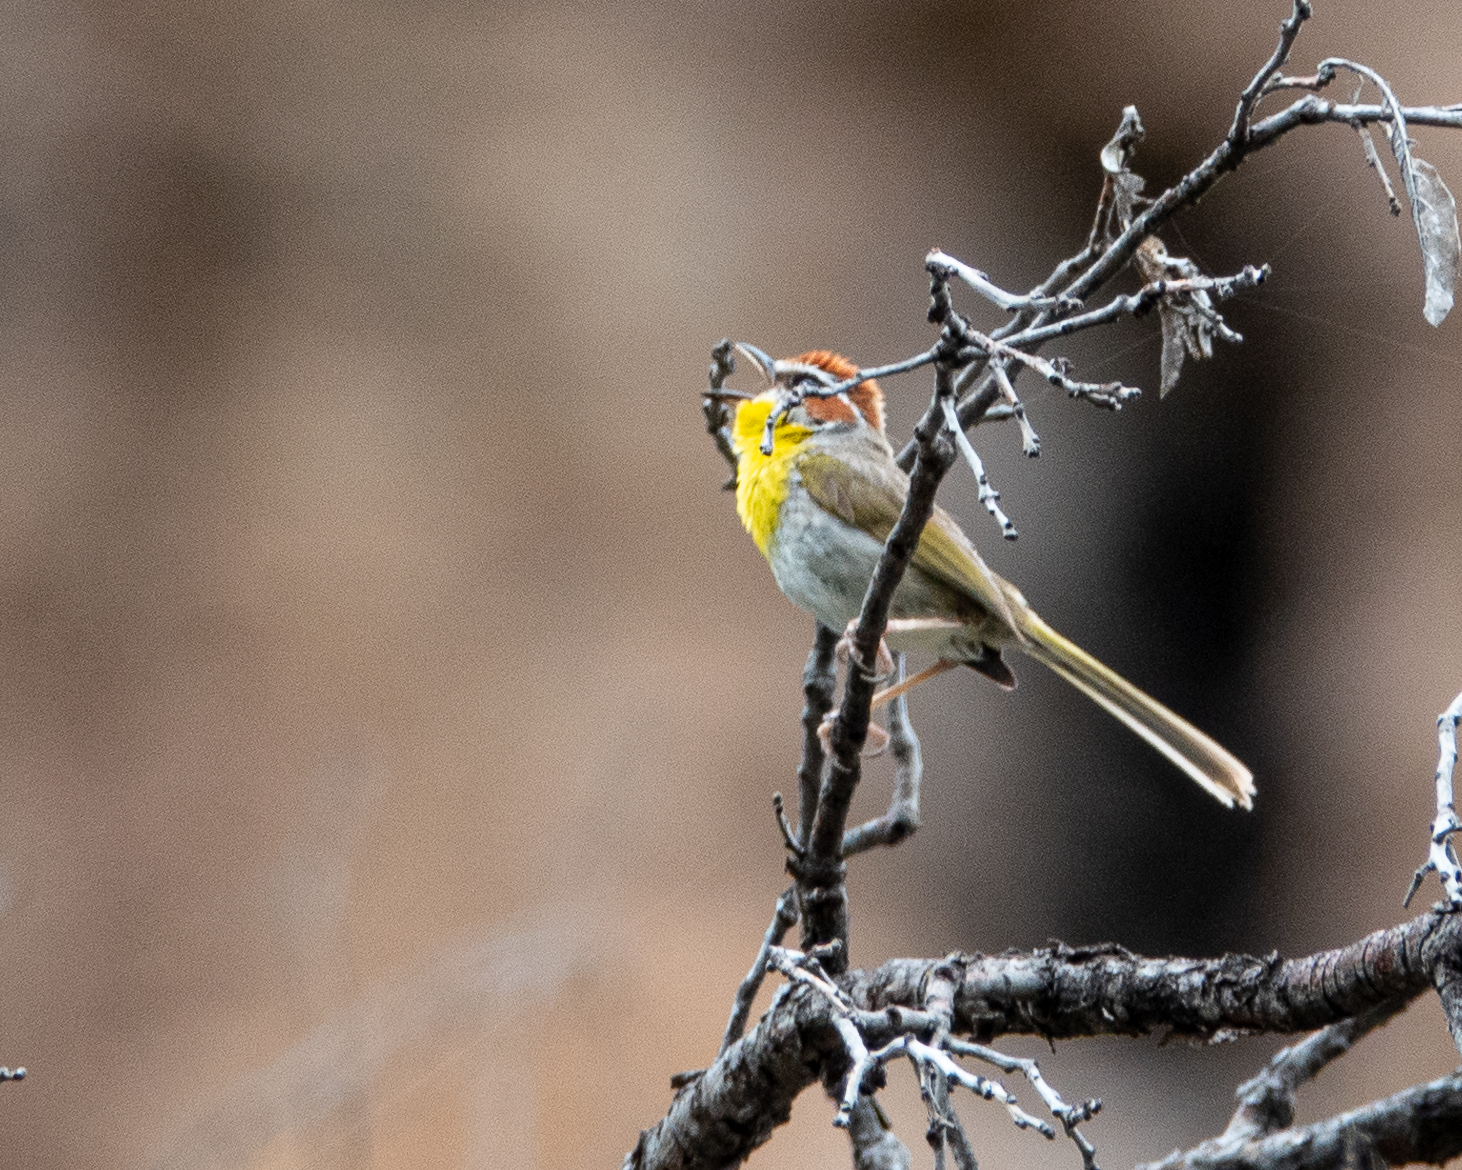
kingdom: Animalia
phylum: Chordata
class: Aves
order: Passeriformes
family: Parulidae
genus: Basileuterus
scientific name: Basileuterus rufifrons
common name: Rufous-capped warbler
